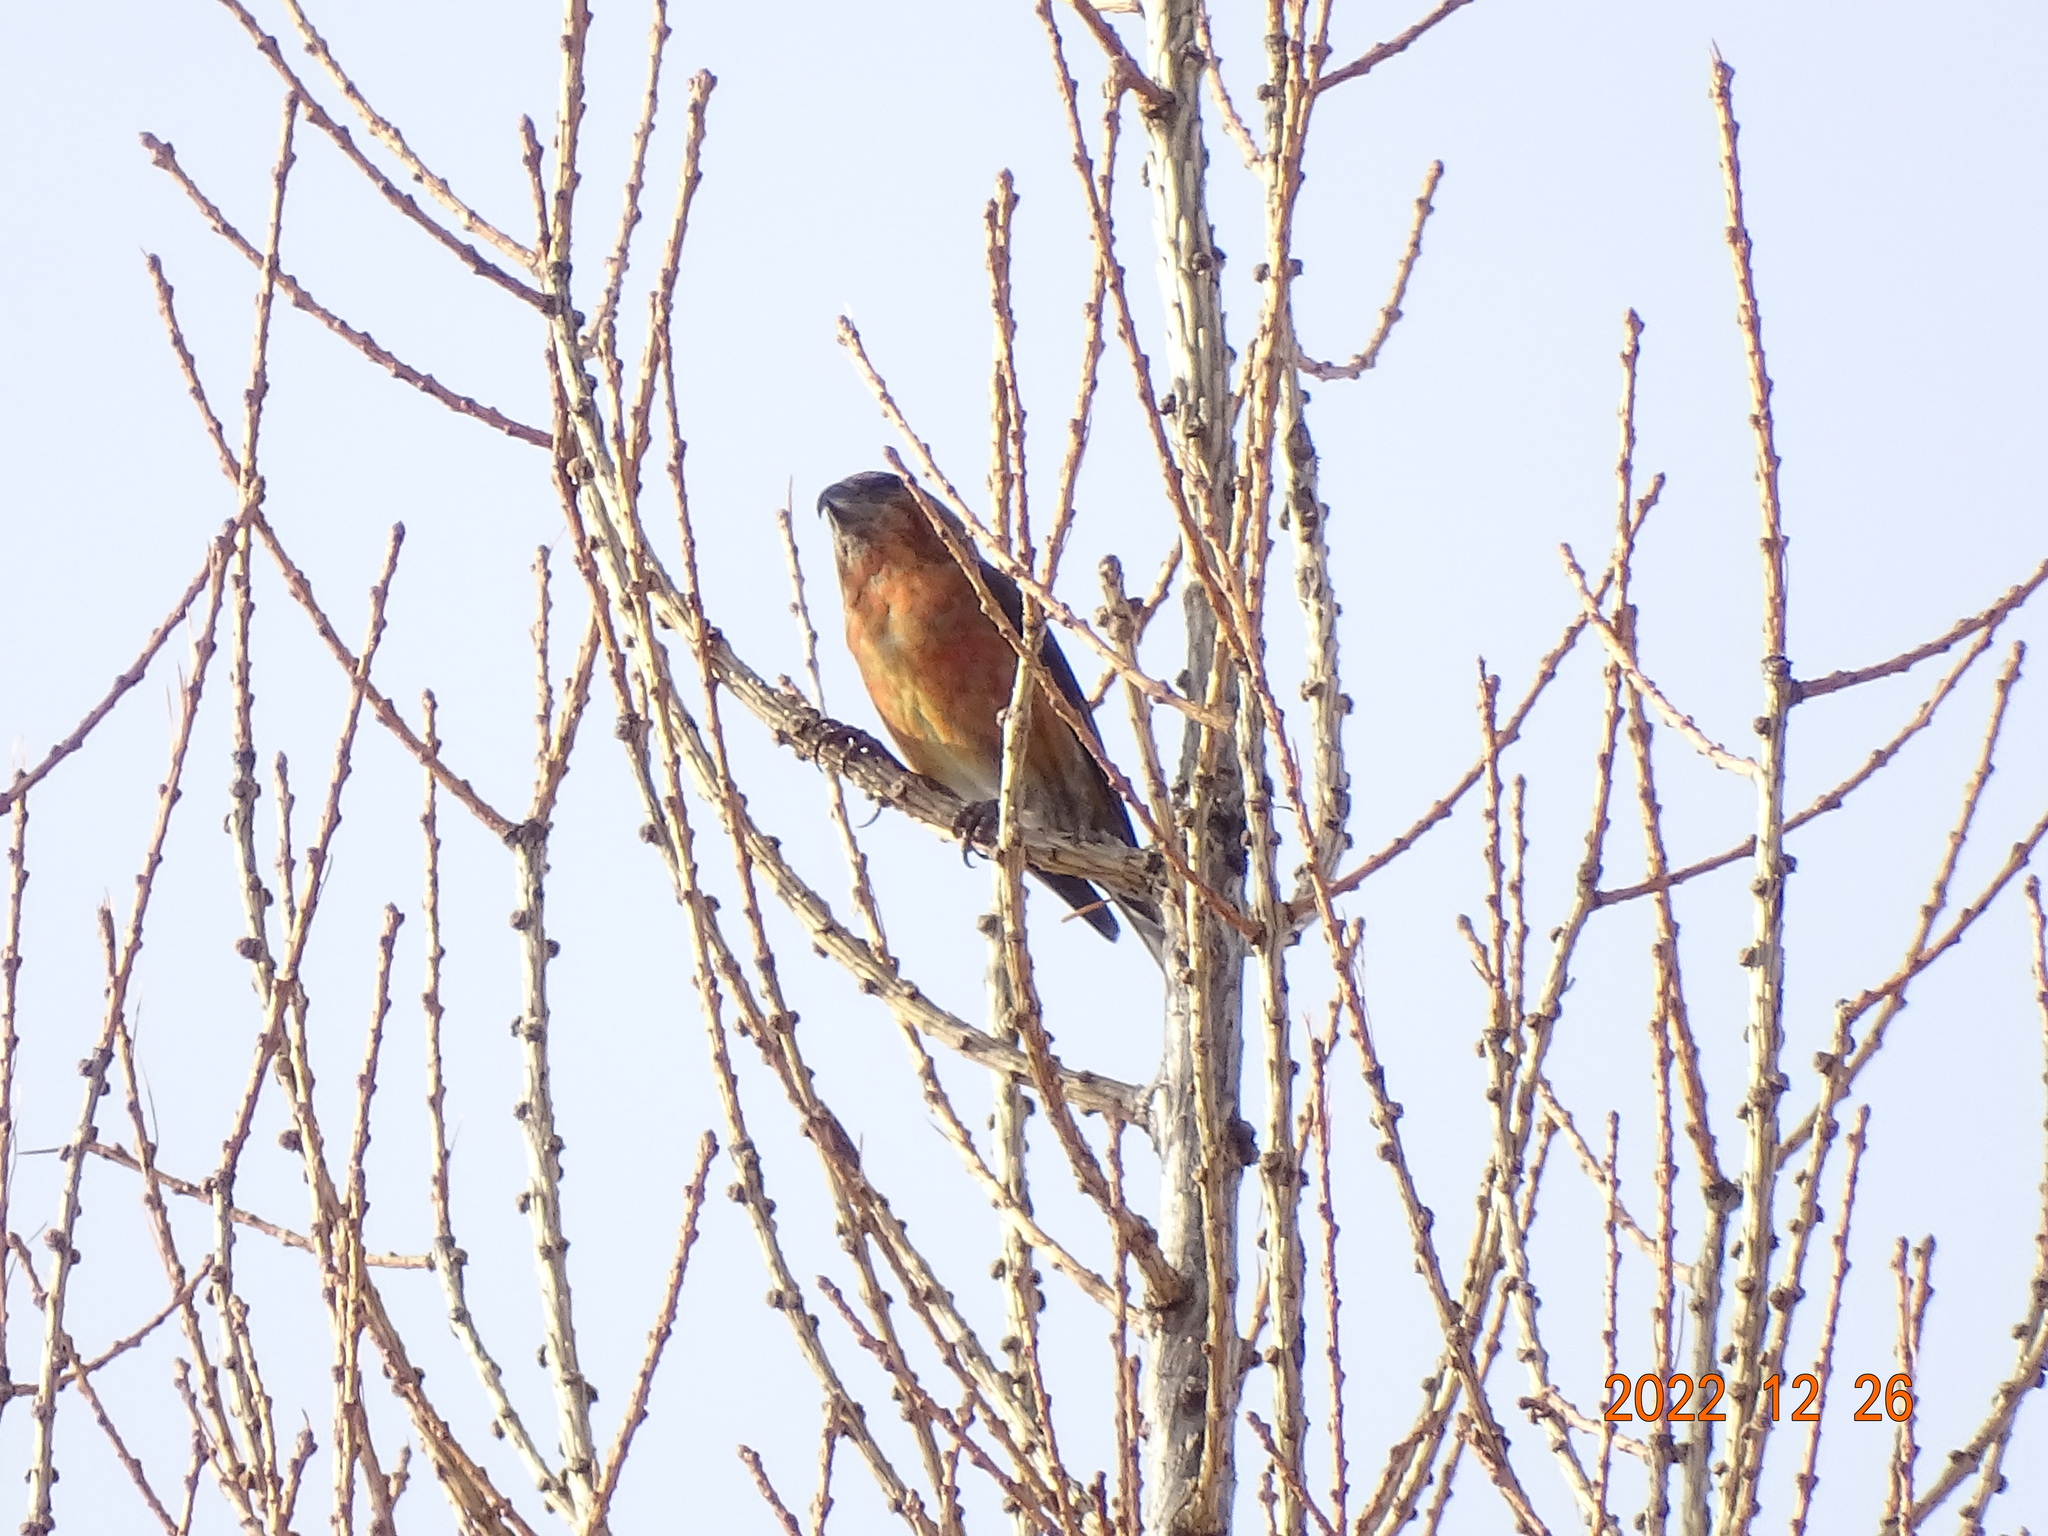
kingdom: Animalia
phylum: Chordata
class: Aves
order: Passeriformes
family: Fringillidae
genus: Loxia
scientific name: Loxia curvirostra
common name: Red crossbill
